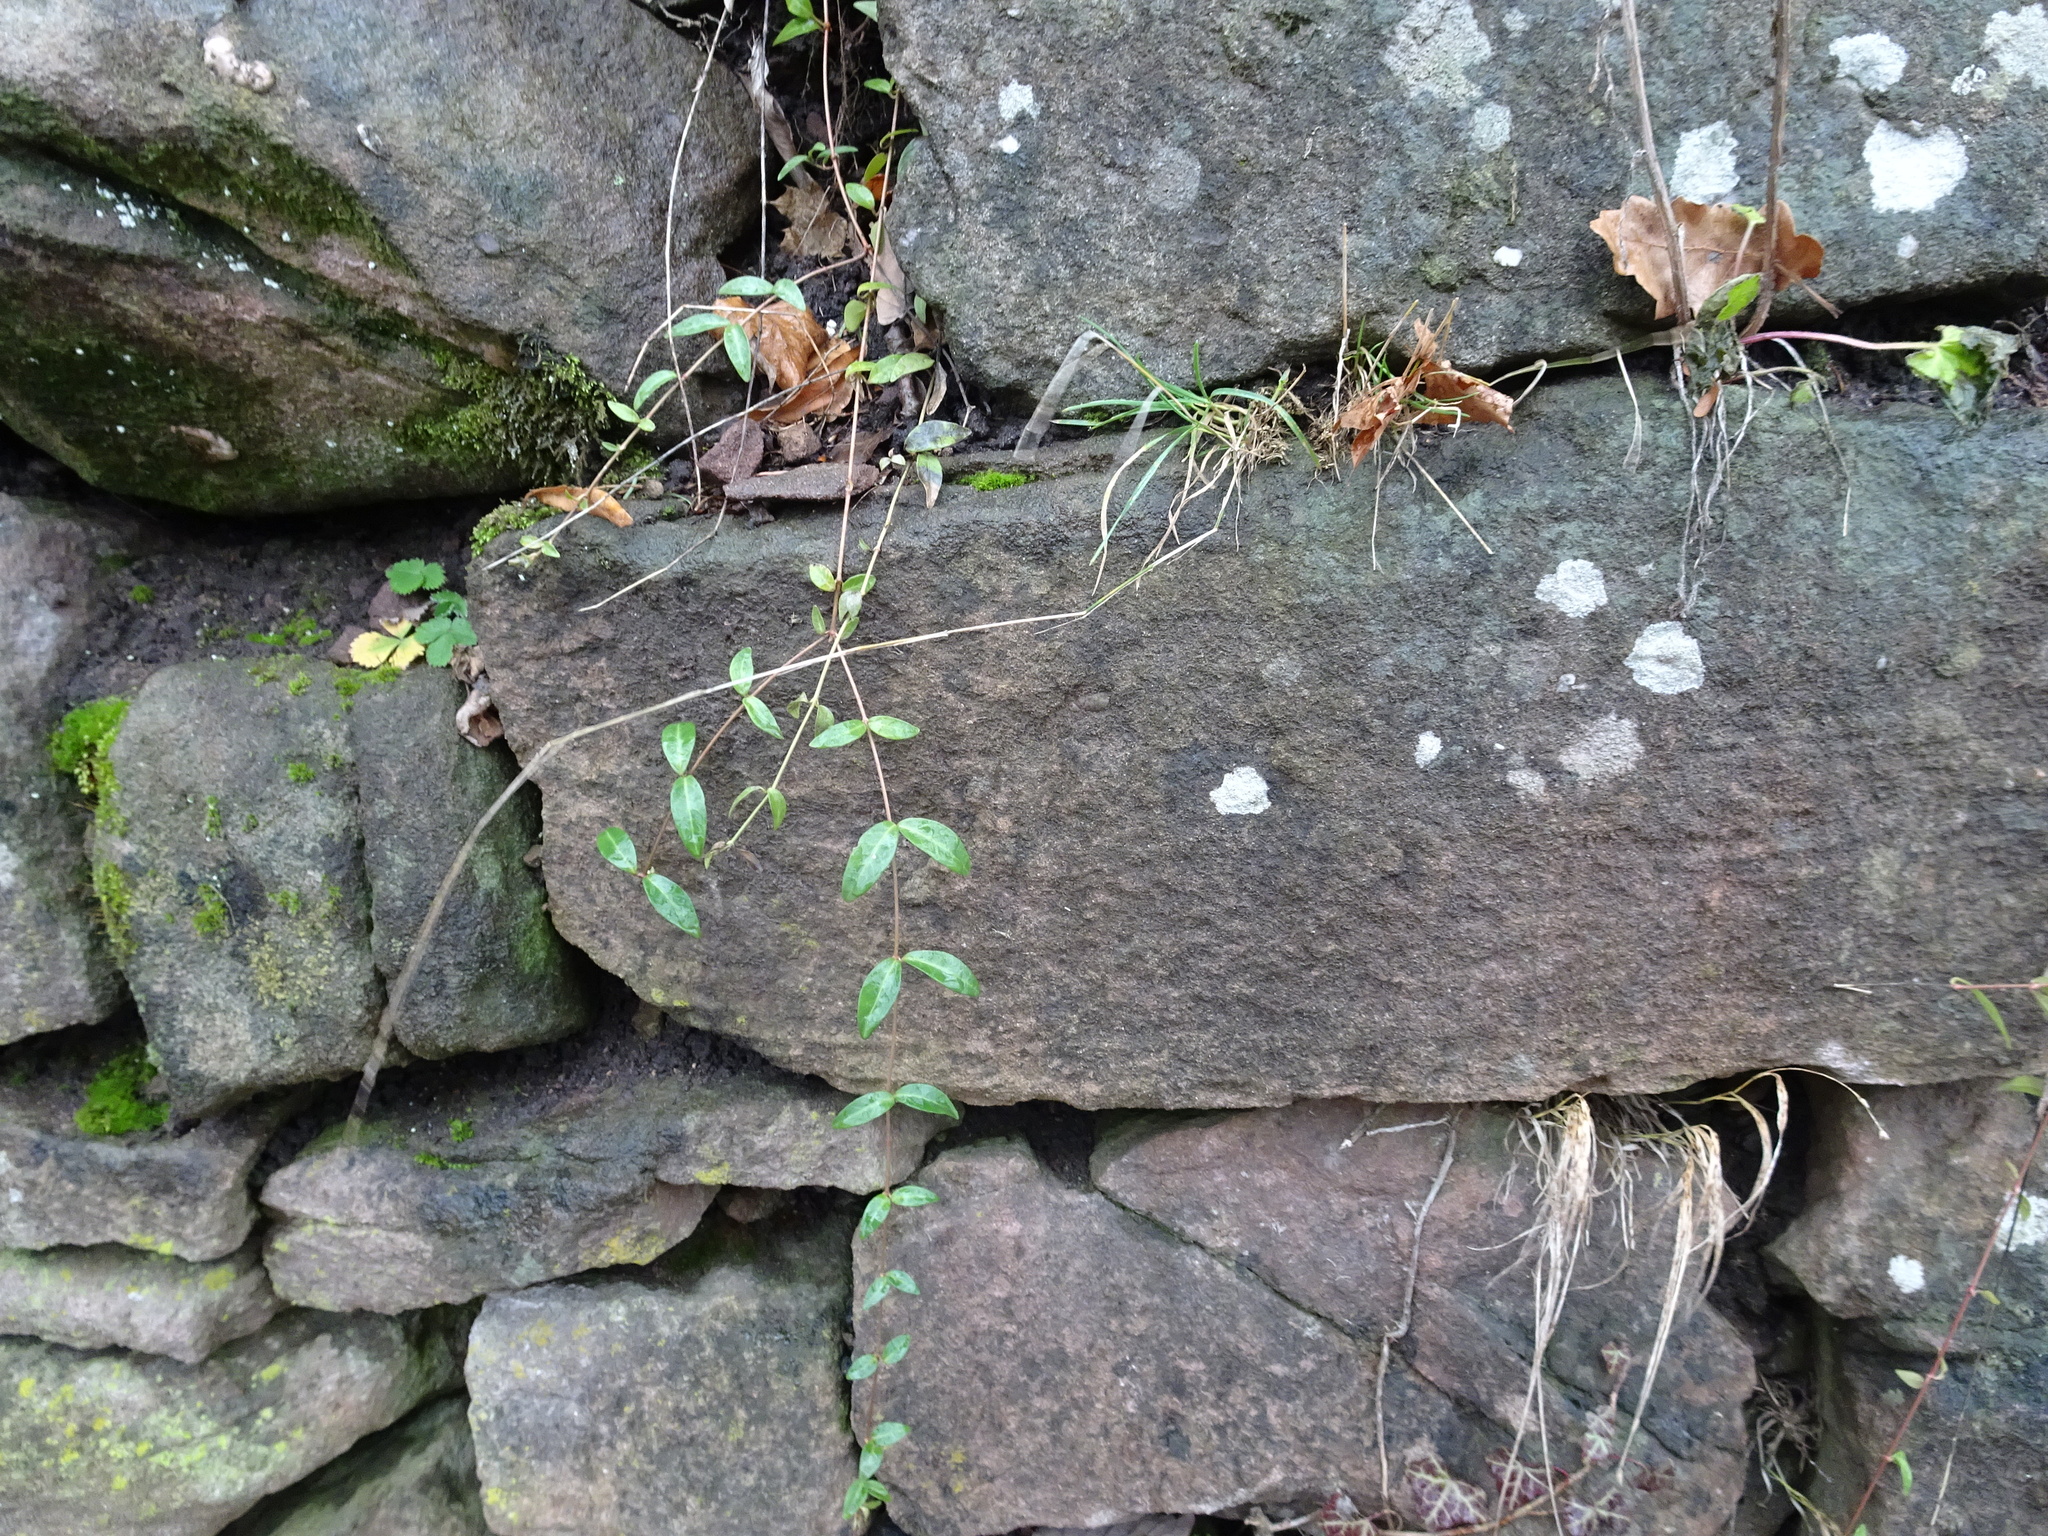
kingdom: Plantae
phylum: Tracheophyta
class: Magnoliopsida
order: Gentianales
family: Apocynaceae
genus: Vinca
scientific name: Vinca minor
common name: Lesser periwinkle
